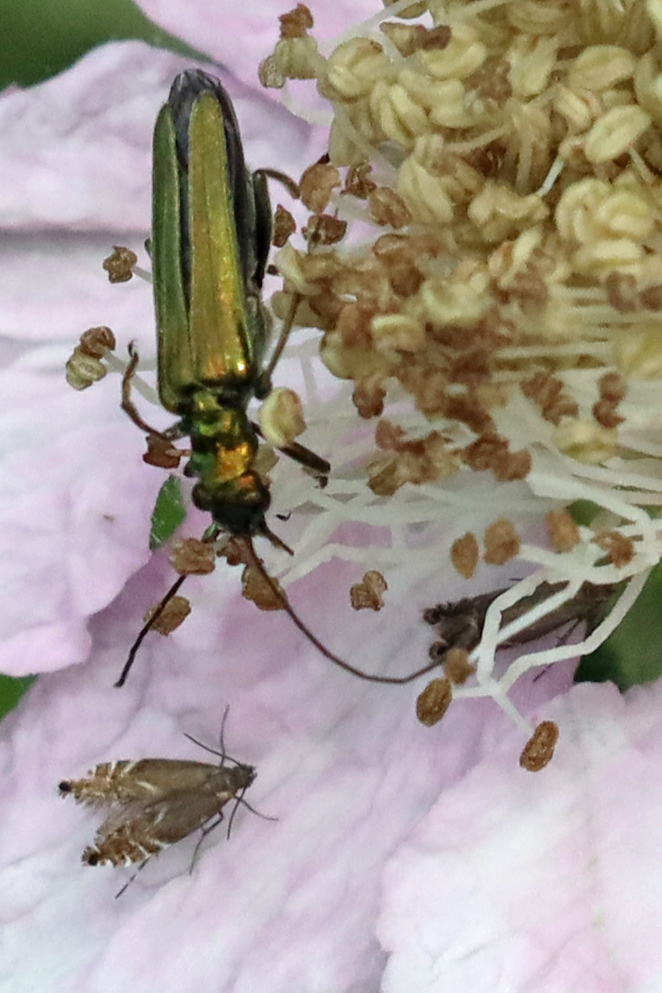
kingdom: Animalia
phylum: Arthropoda
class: Insecta
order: Coleoptera
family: Oedemeridae
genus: Oedemera
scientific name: Oedemera nobilis
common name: Swollen-thighed beetle
